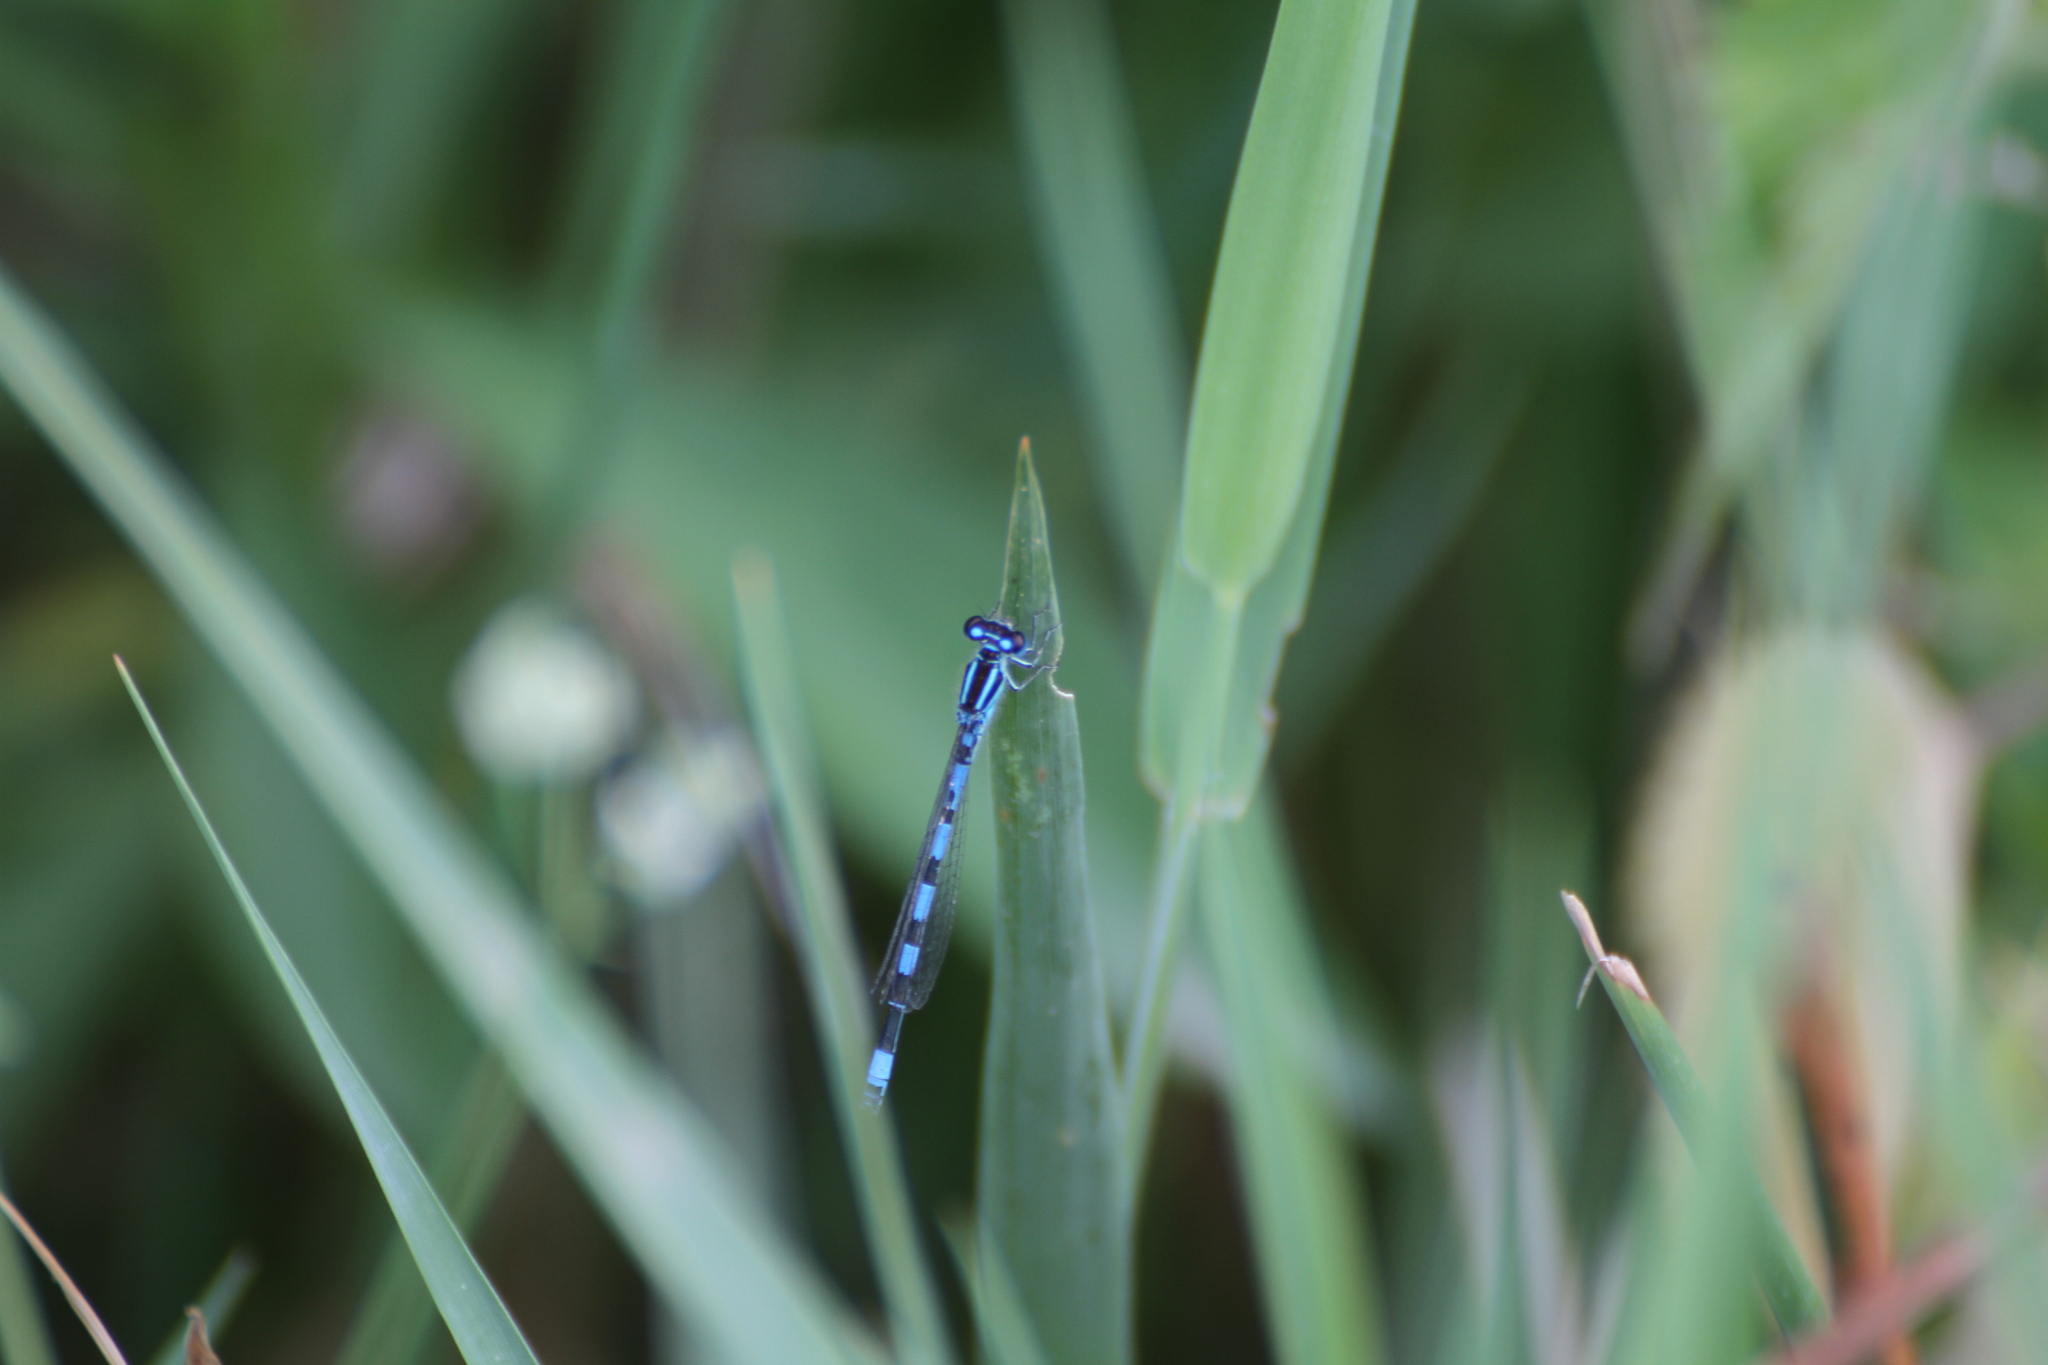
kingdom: Animalia
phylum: Arthropoda
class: Insecta
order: Odonata
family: Coenagrionidae
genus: Coenagrion
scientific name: Coenagrion mercuriale
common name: Southern damselfly
